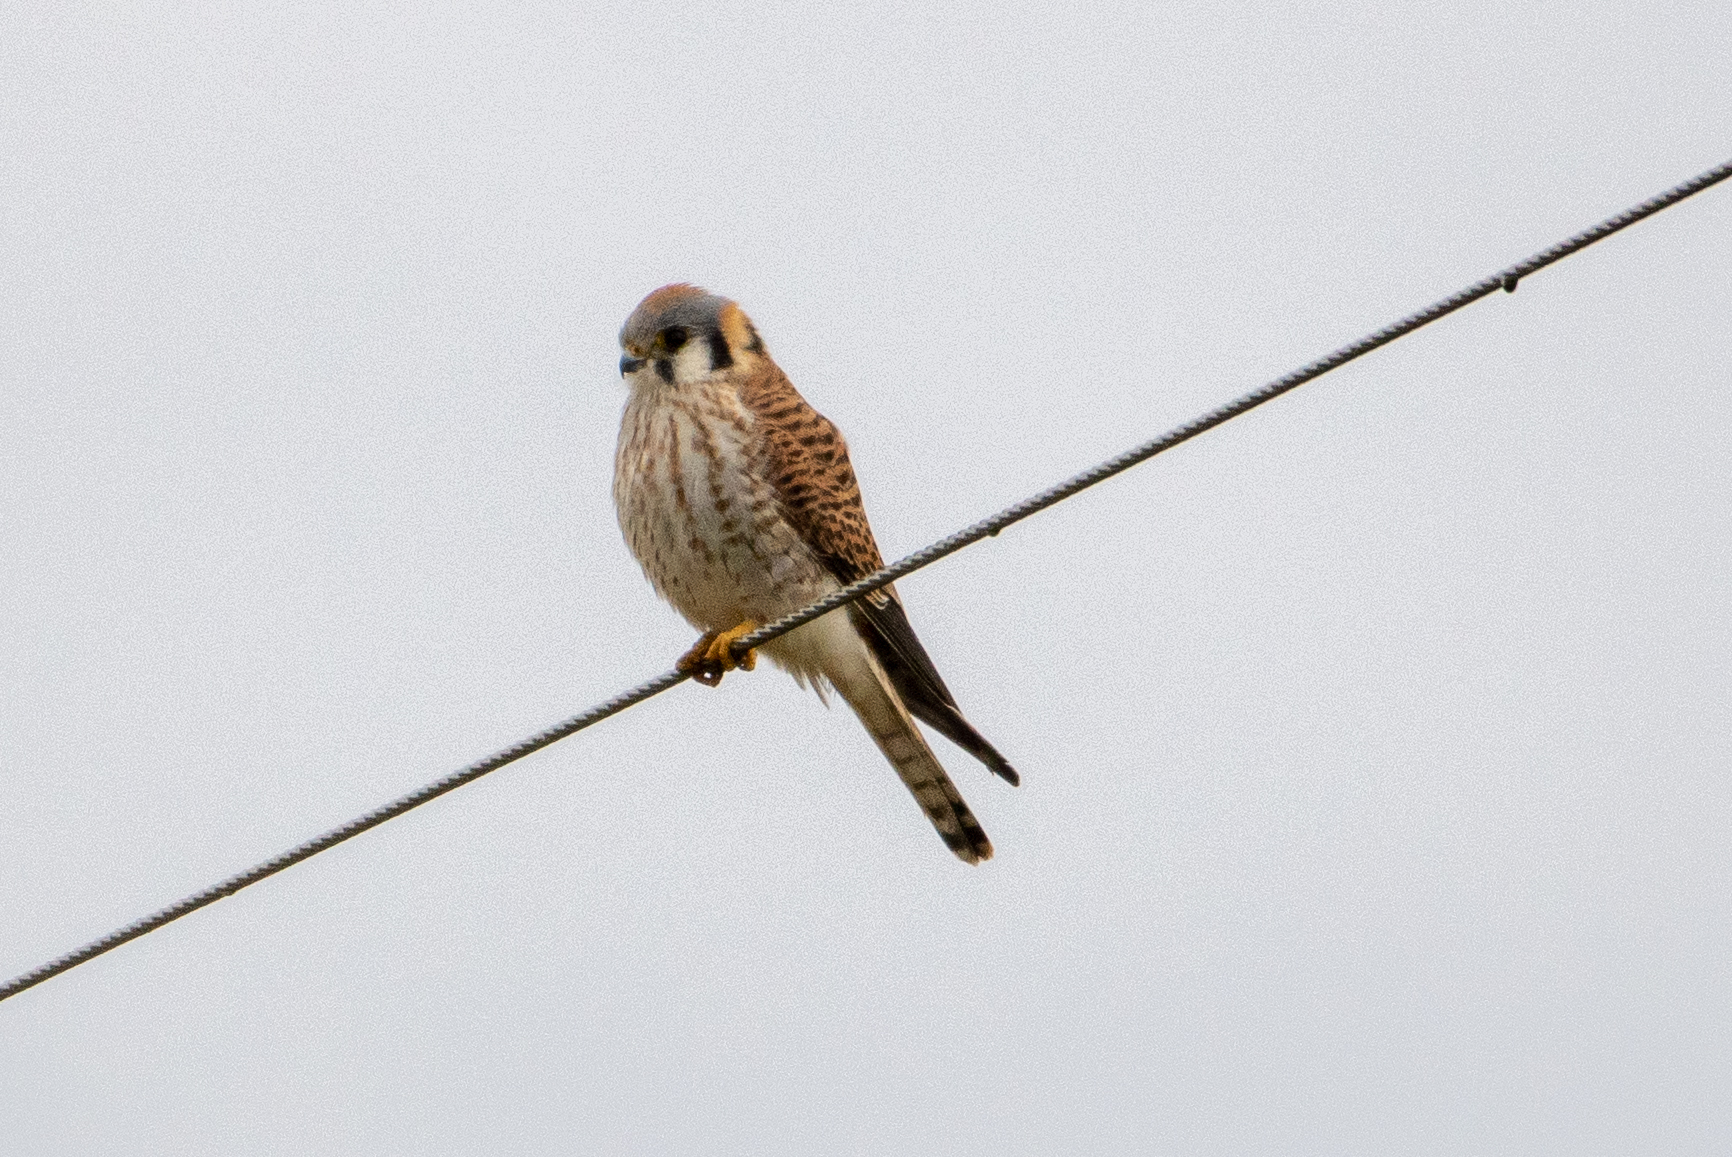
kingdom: Animalia
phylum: Chordata
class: Aves
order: Falconiformes
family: Falconidae
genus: Falco
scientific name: Falco sparverius
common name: American kestrel
